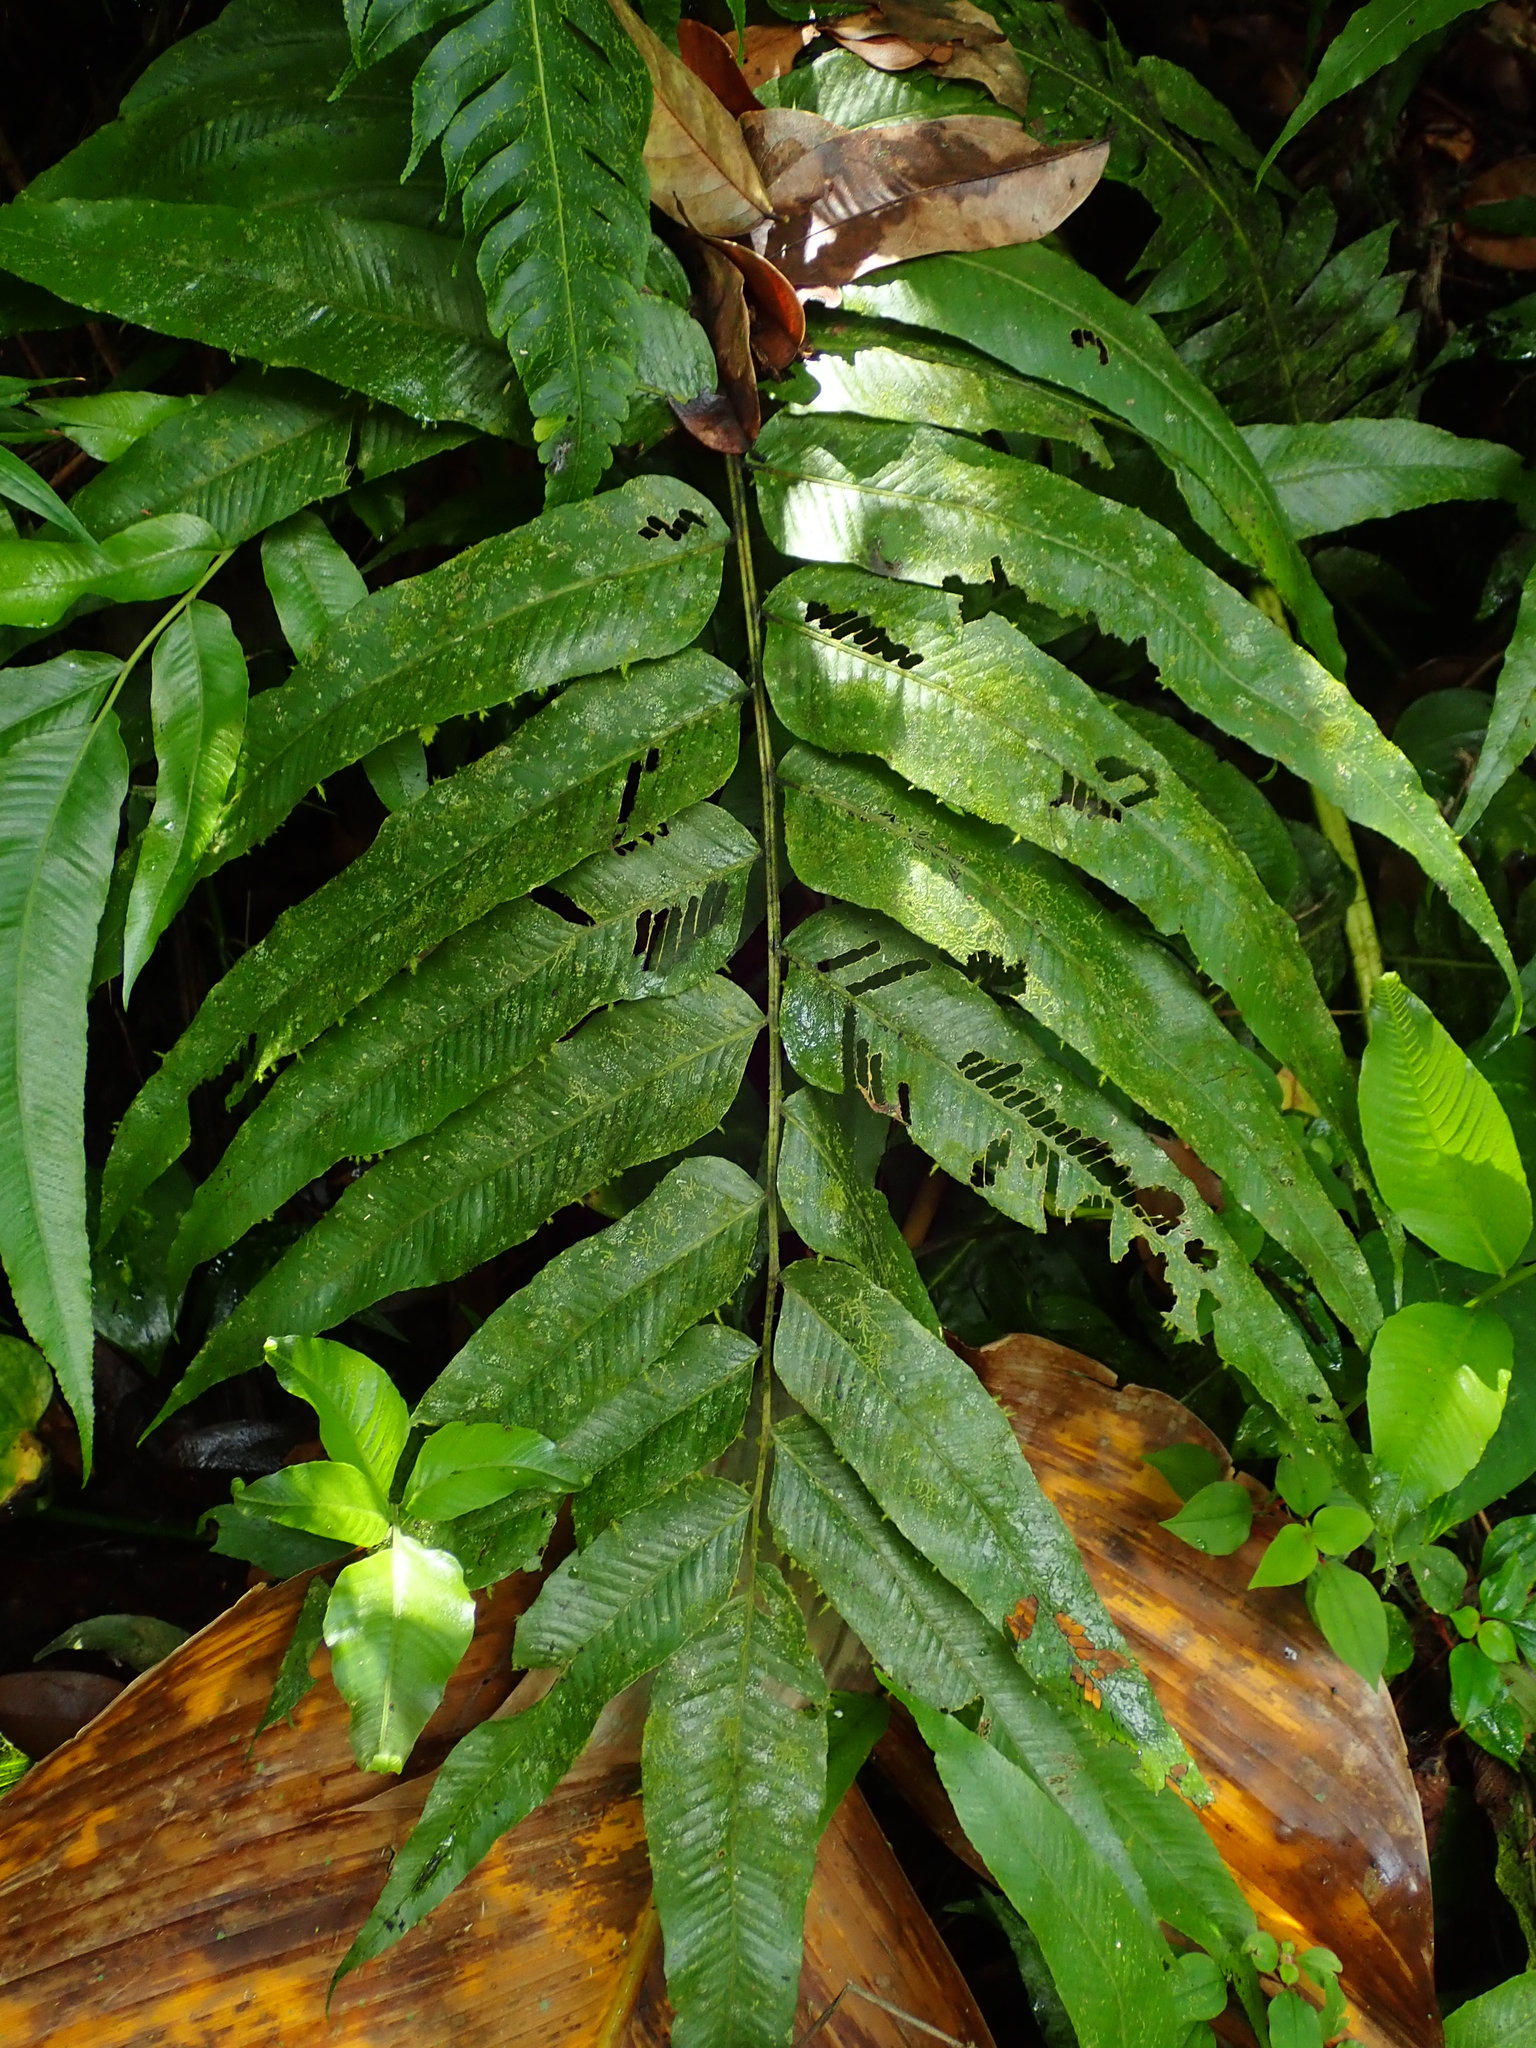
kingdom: Plantae
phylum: Tracheophyta
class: Polypodiopsida
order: Polypodiales
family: Thelypteridaceae
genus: Meniscium
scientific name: Meniscium reticulatum
